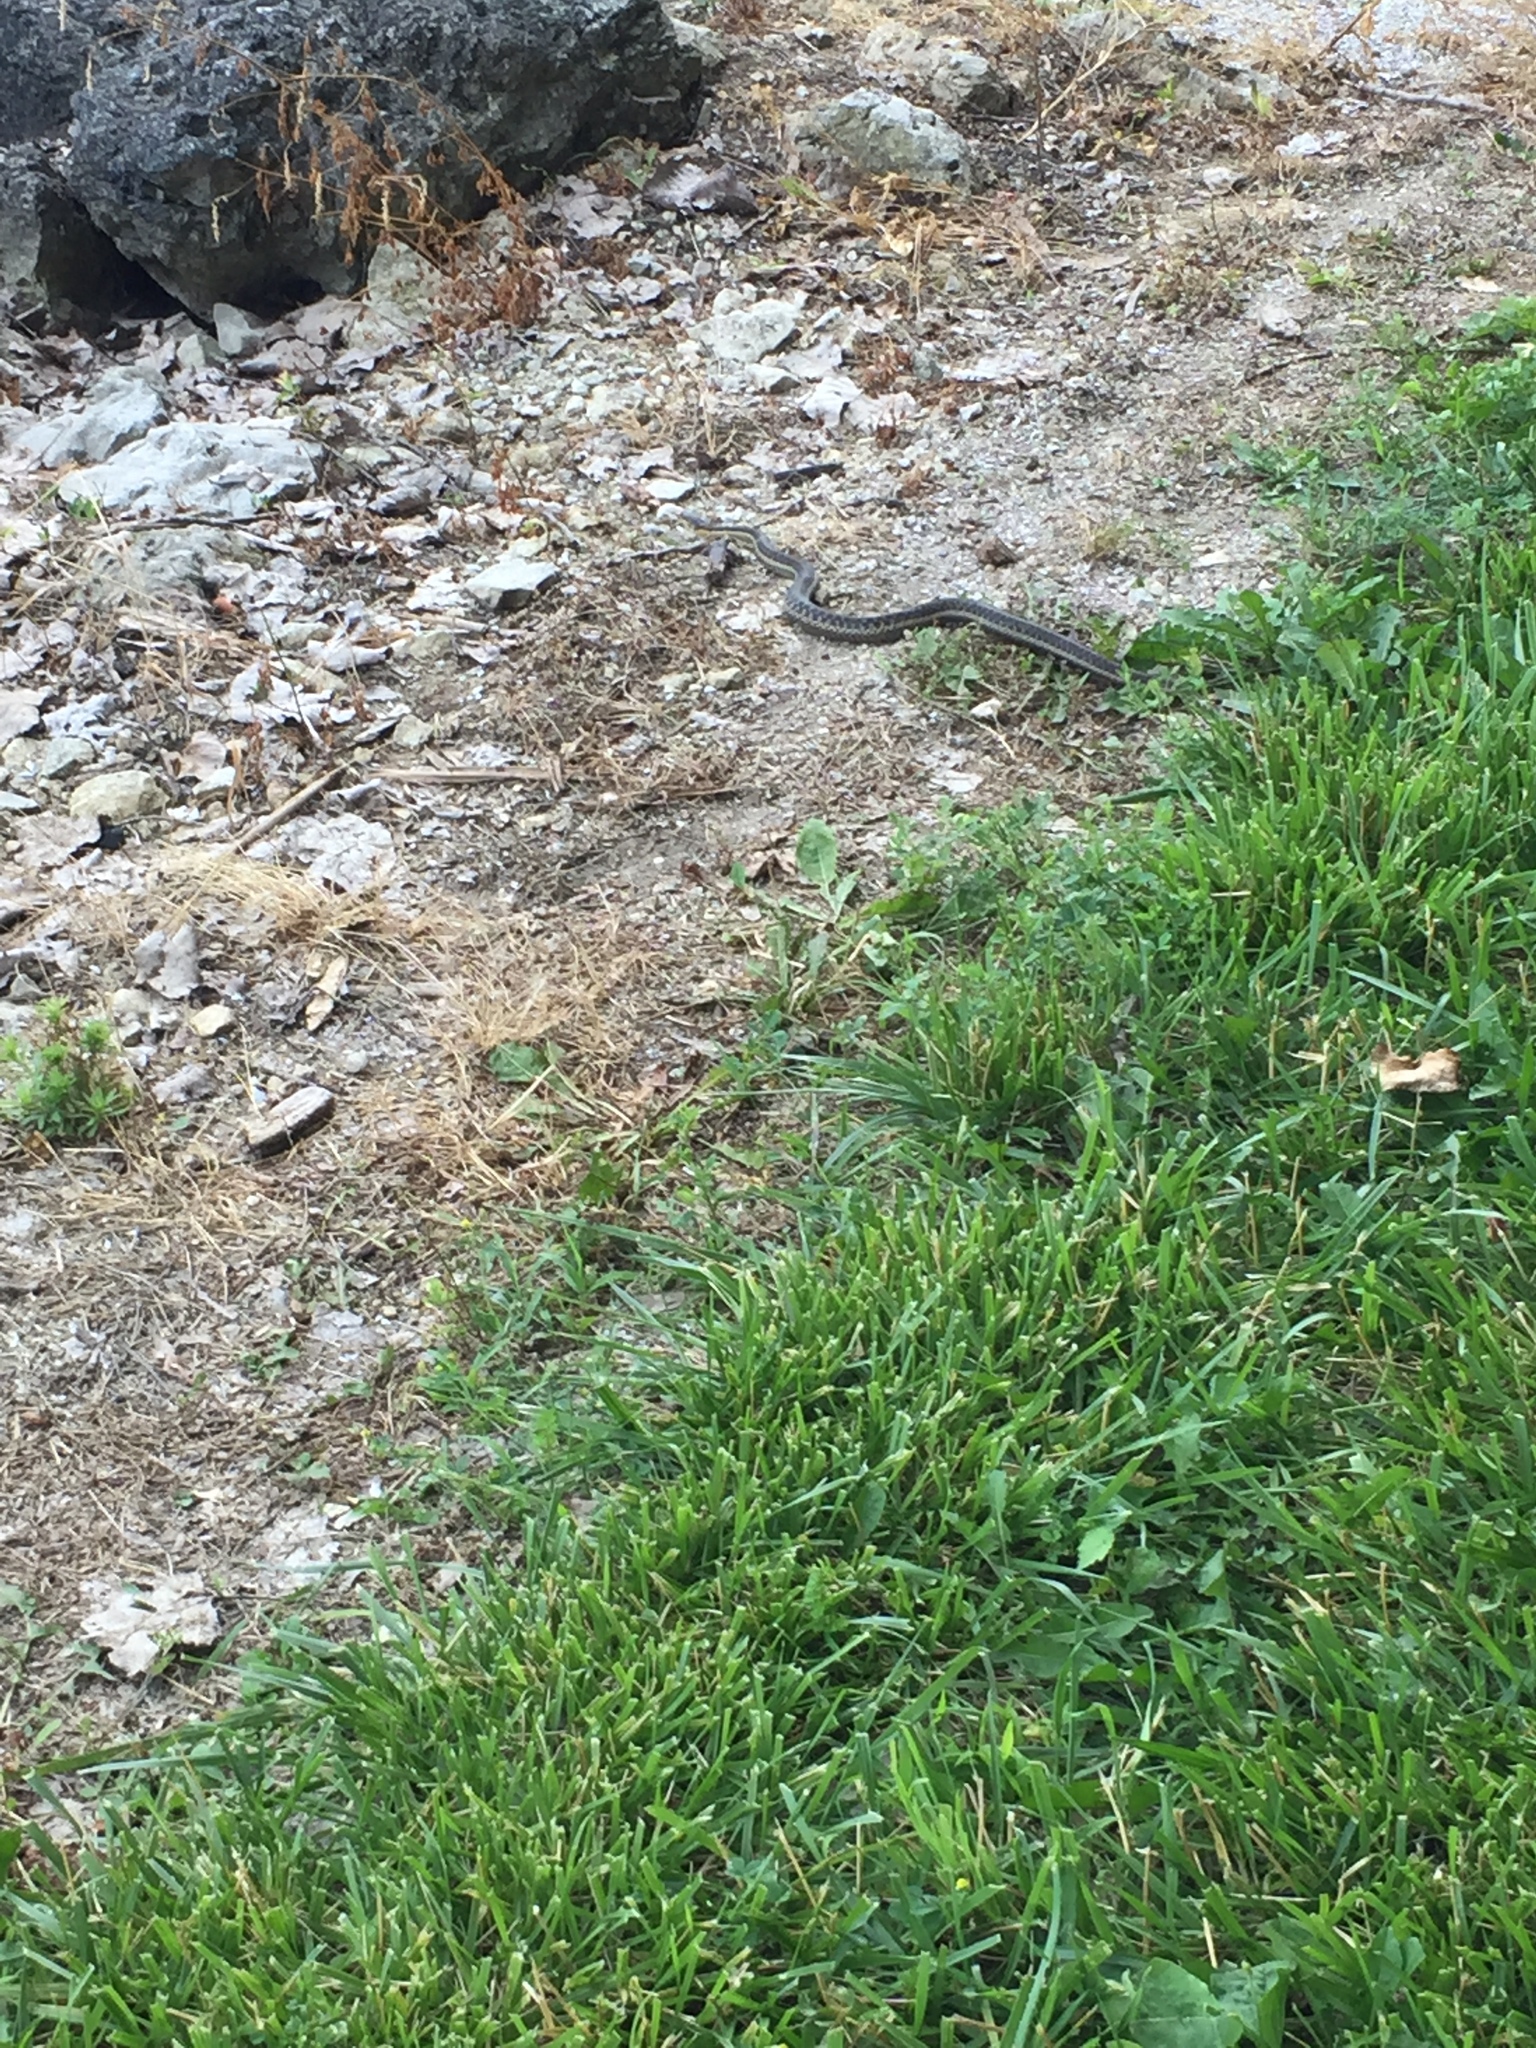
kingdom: Animalia
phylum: Chordata
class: Squamata
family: Colubridae
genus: Thamnophis
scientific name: Thamnophis sirtalis
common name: Common garter snake
